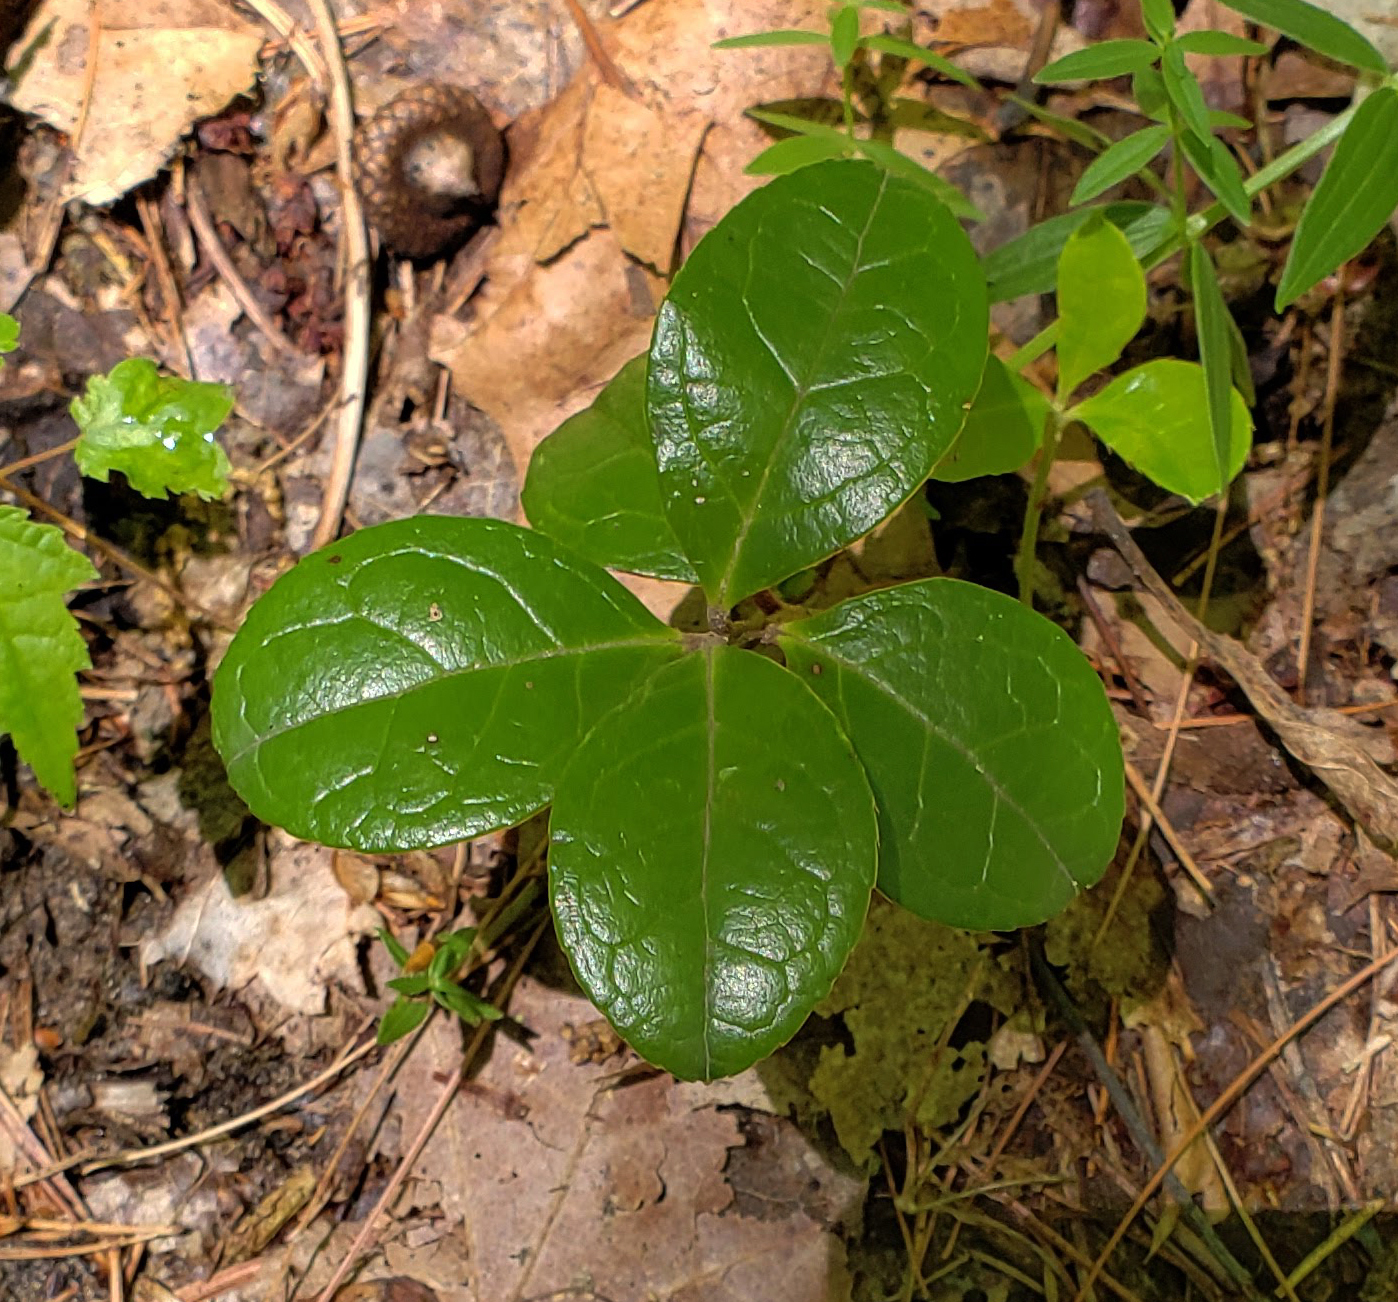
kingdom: Plantae
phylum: Tracheophyta
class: Magnoliopsida
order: Ericales
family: Ericaceae
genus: Gaultheria
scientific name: Gaultheria procumbens
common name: Checkerberry
